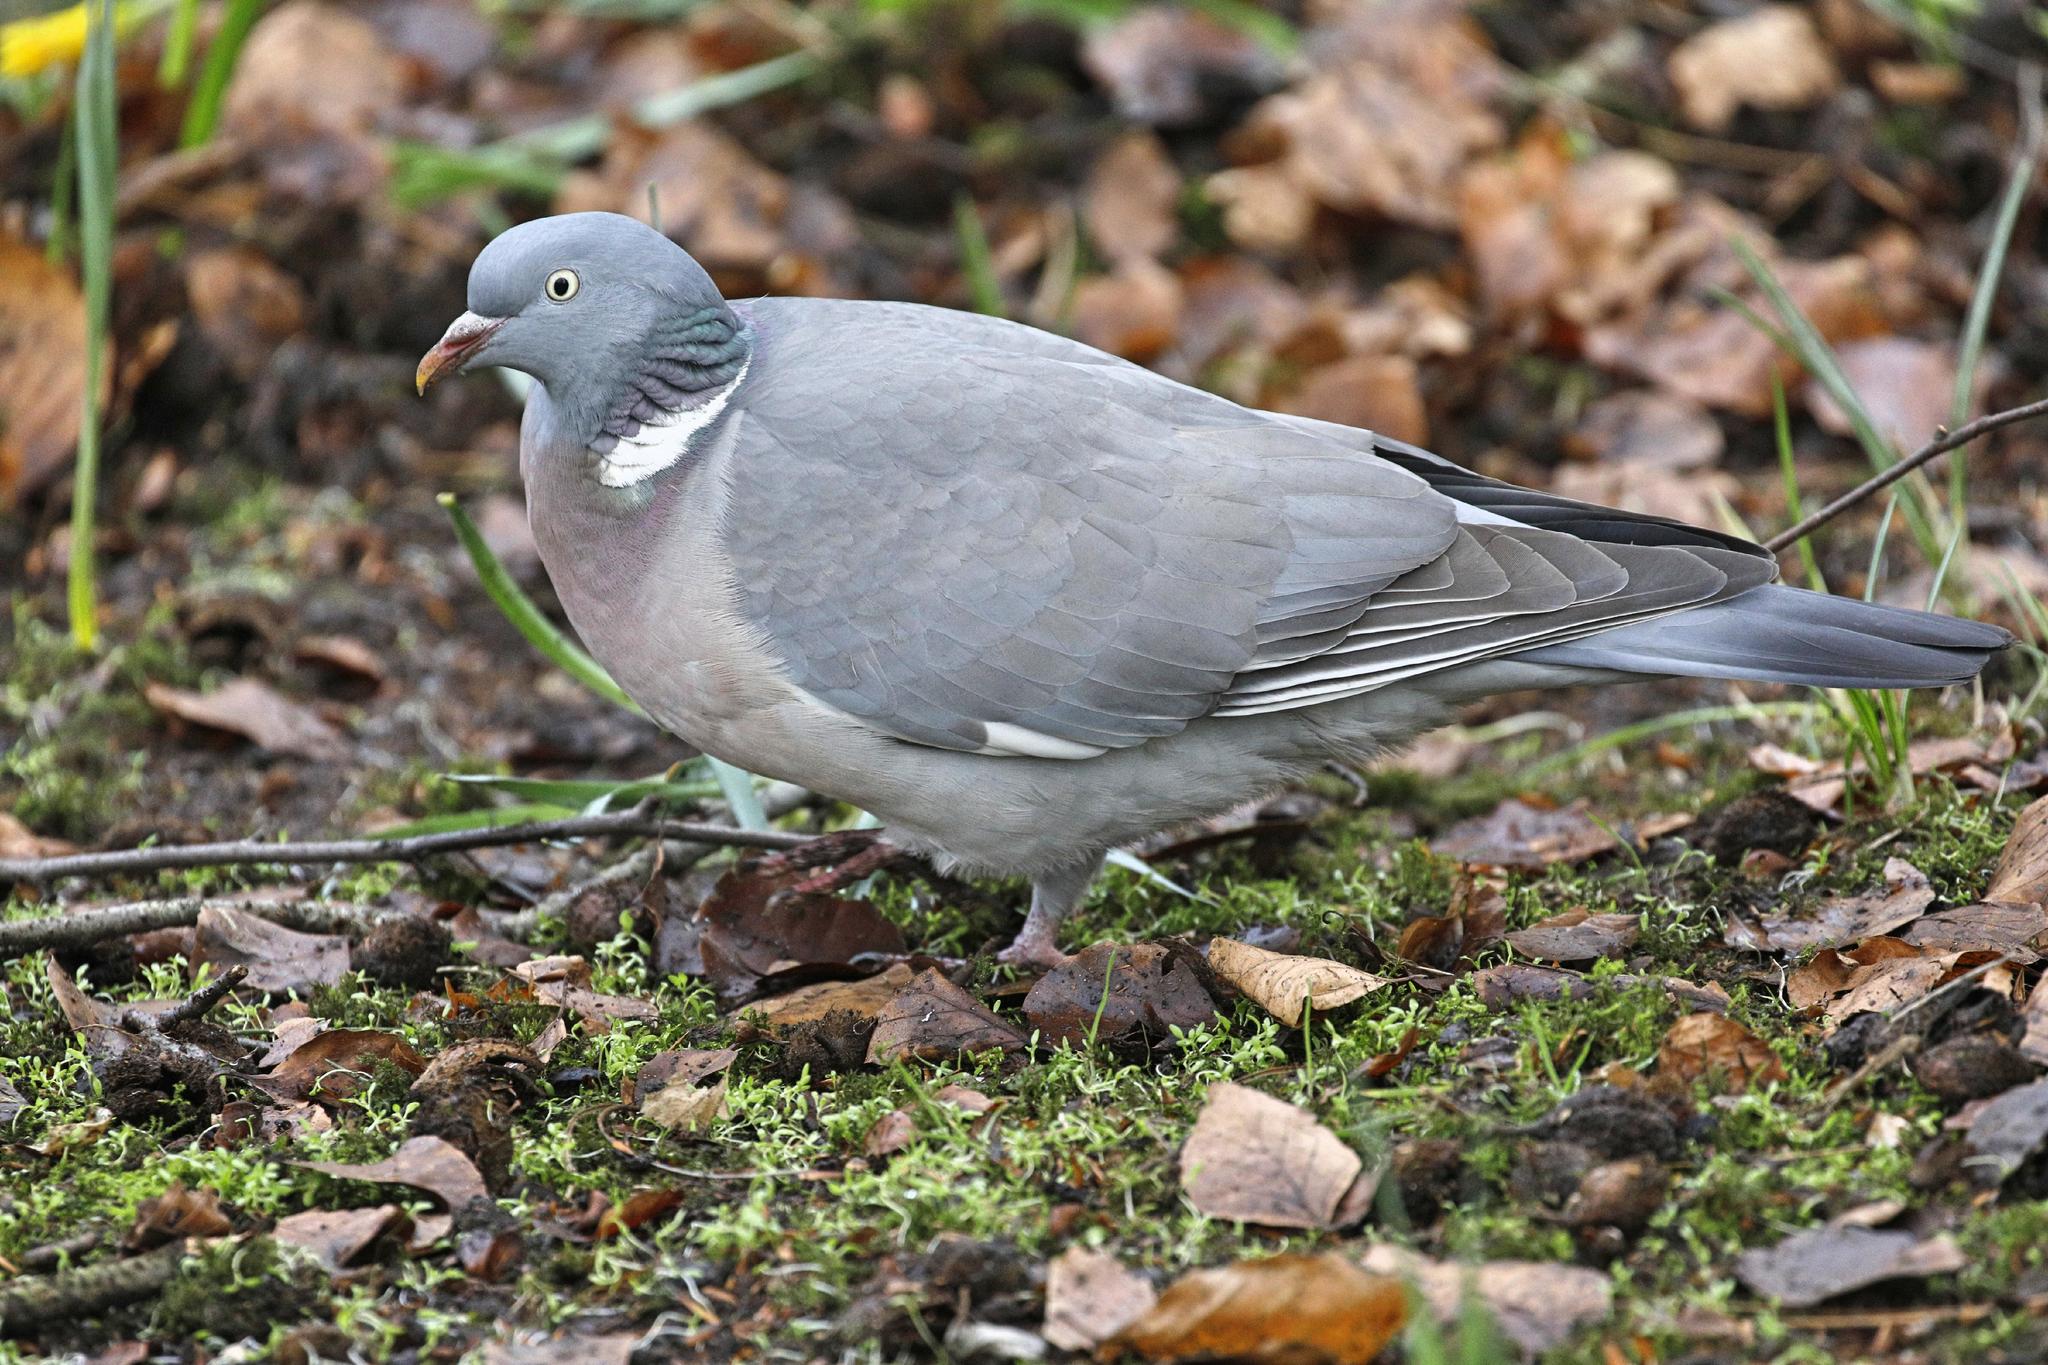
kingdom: Animalia
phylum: Chordata
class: Aves
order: Columbiformes
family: Columbidae
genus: Columba
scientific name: Columba palumbus
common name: Common wood pigeon
